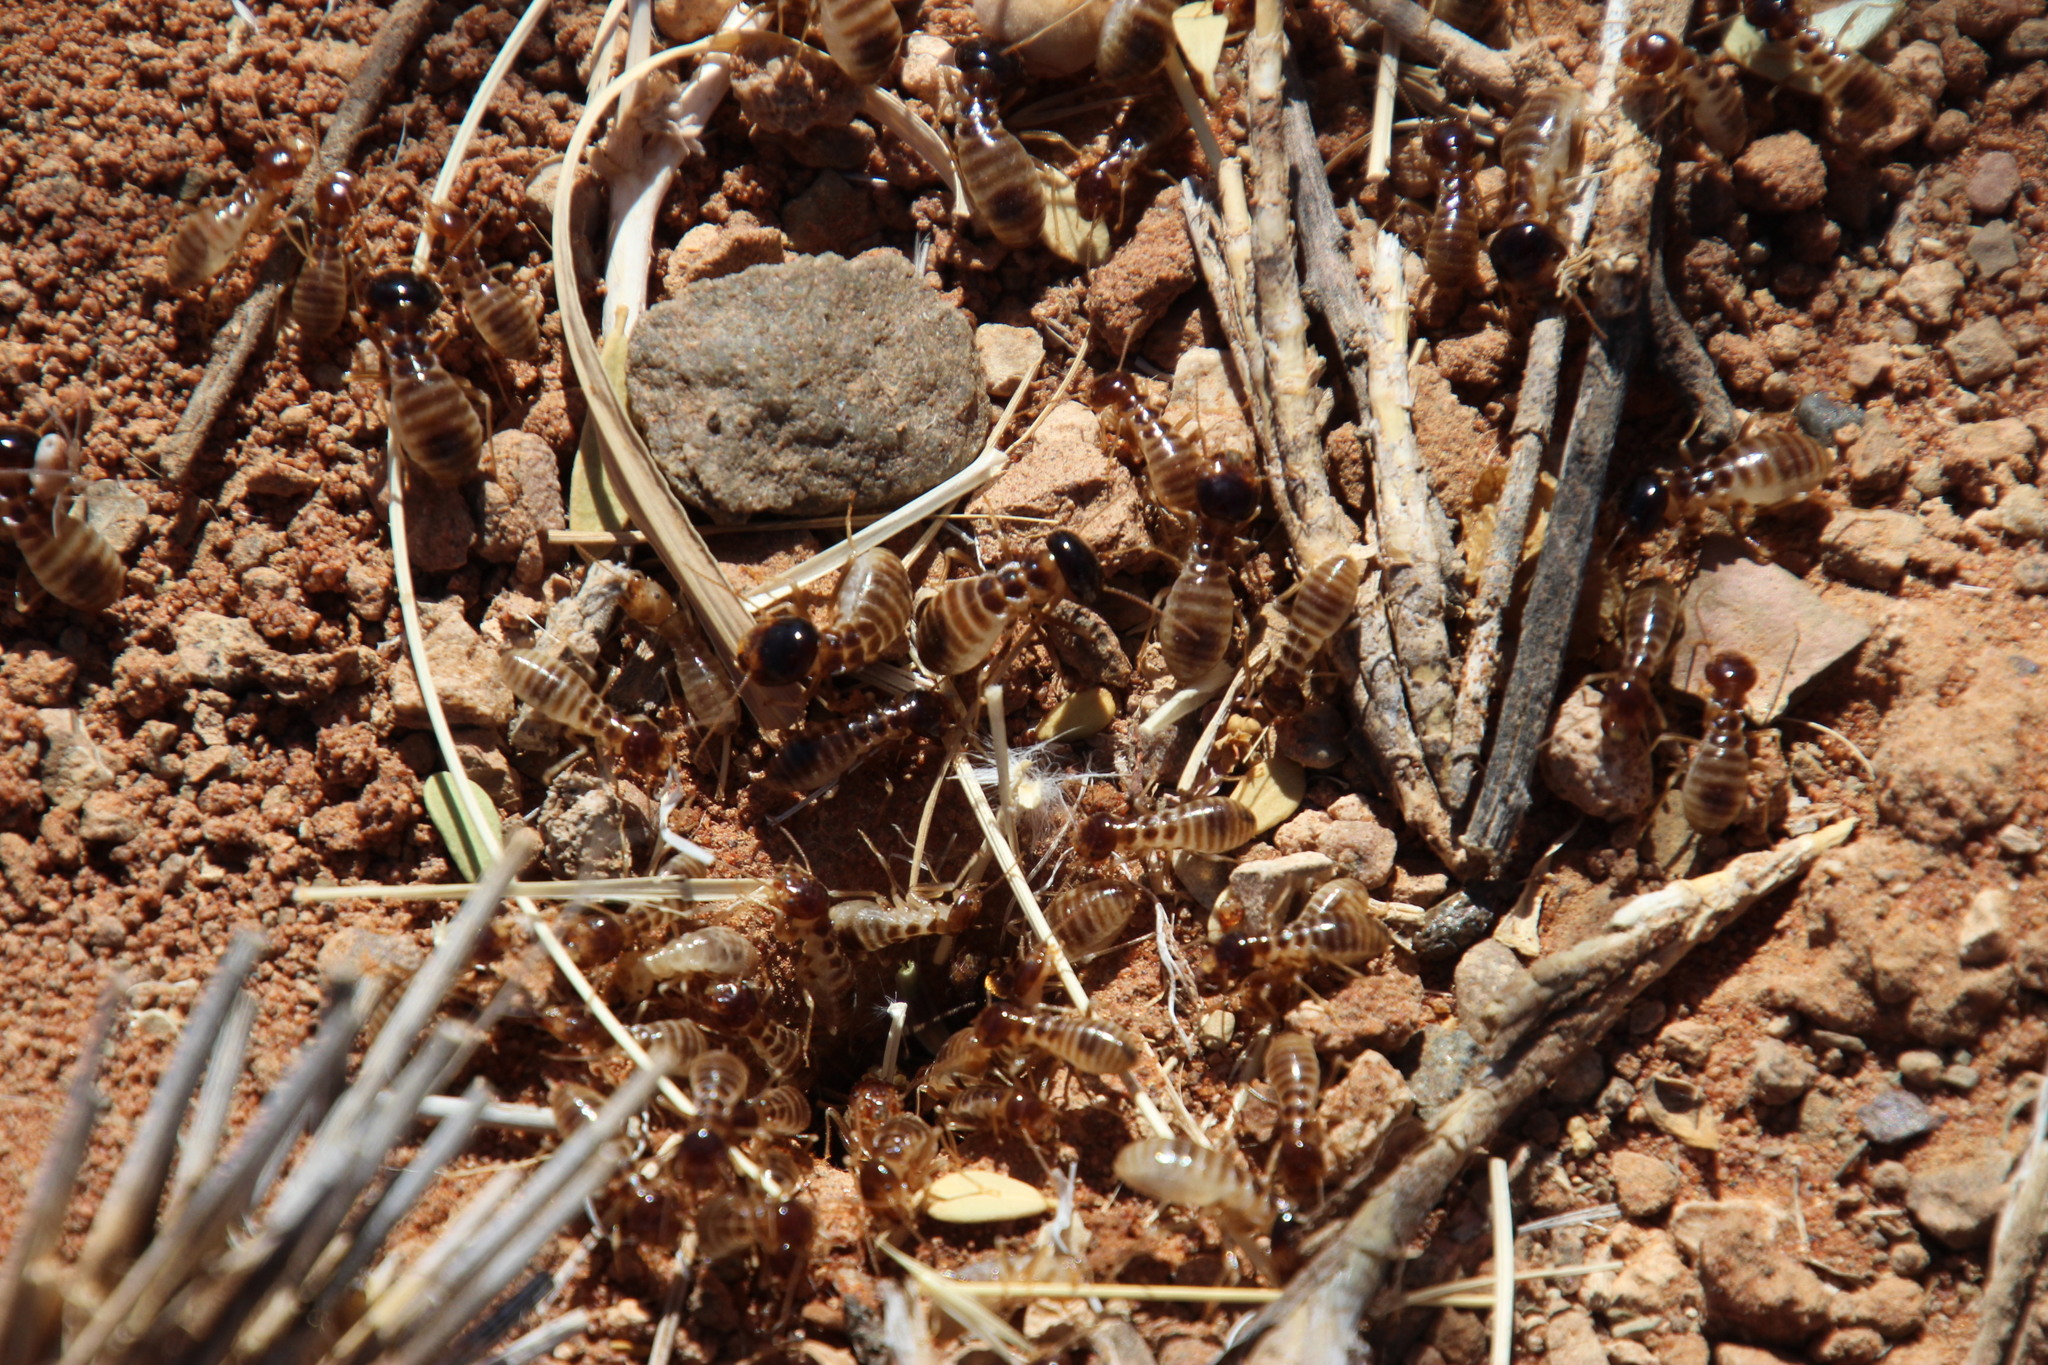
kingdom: Animalia
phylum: Arthropoda
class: Insecta
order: Blattodea
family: Hodotermitidae
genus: Hodotermes
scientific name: Hodotermes mossambicus
